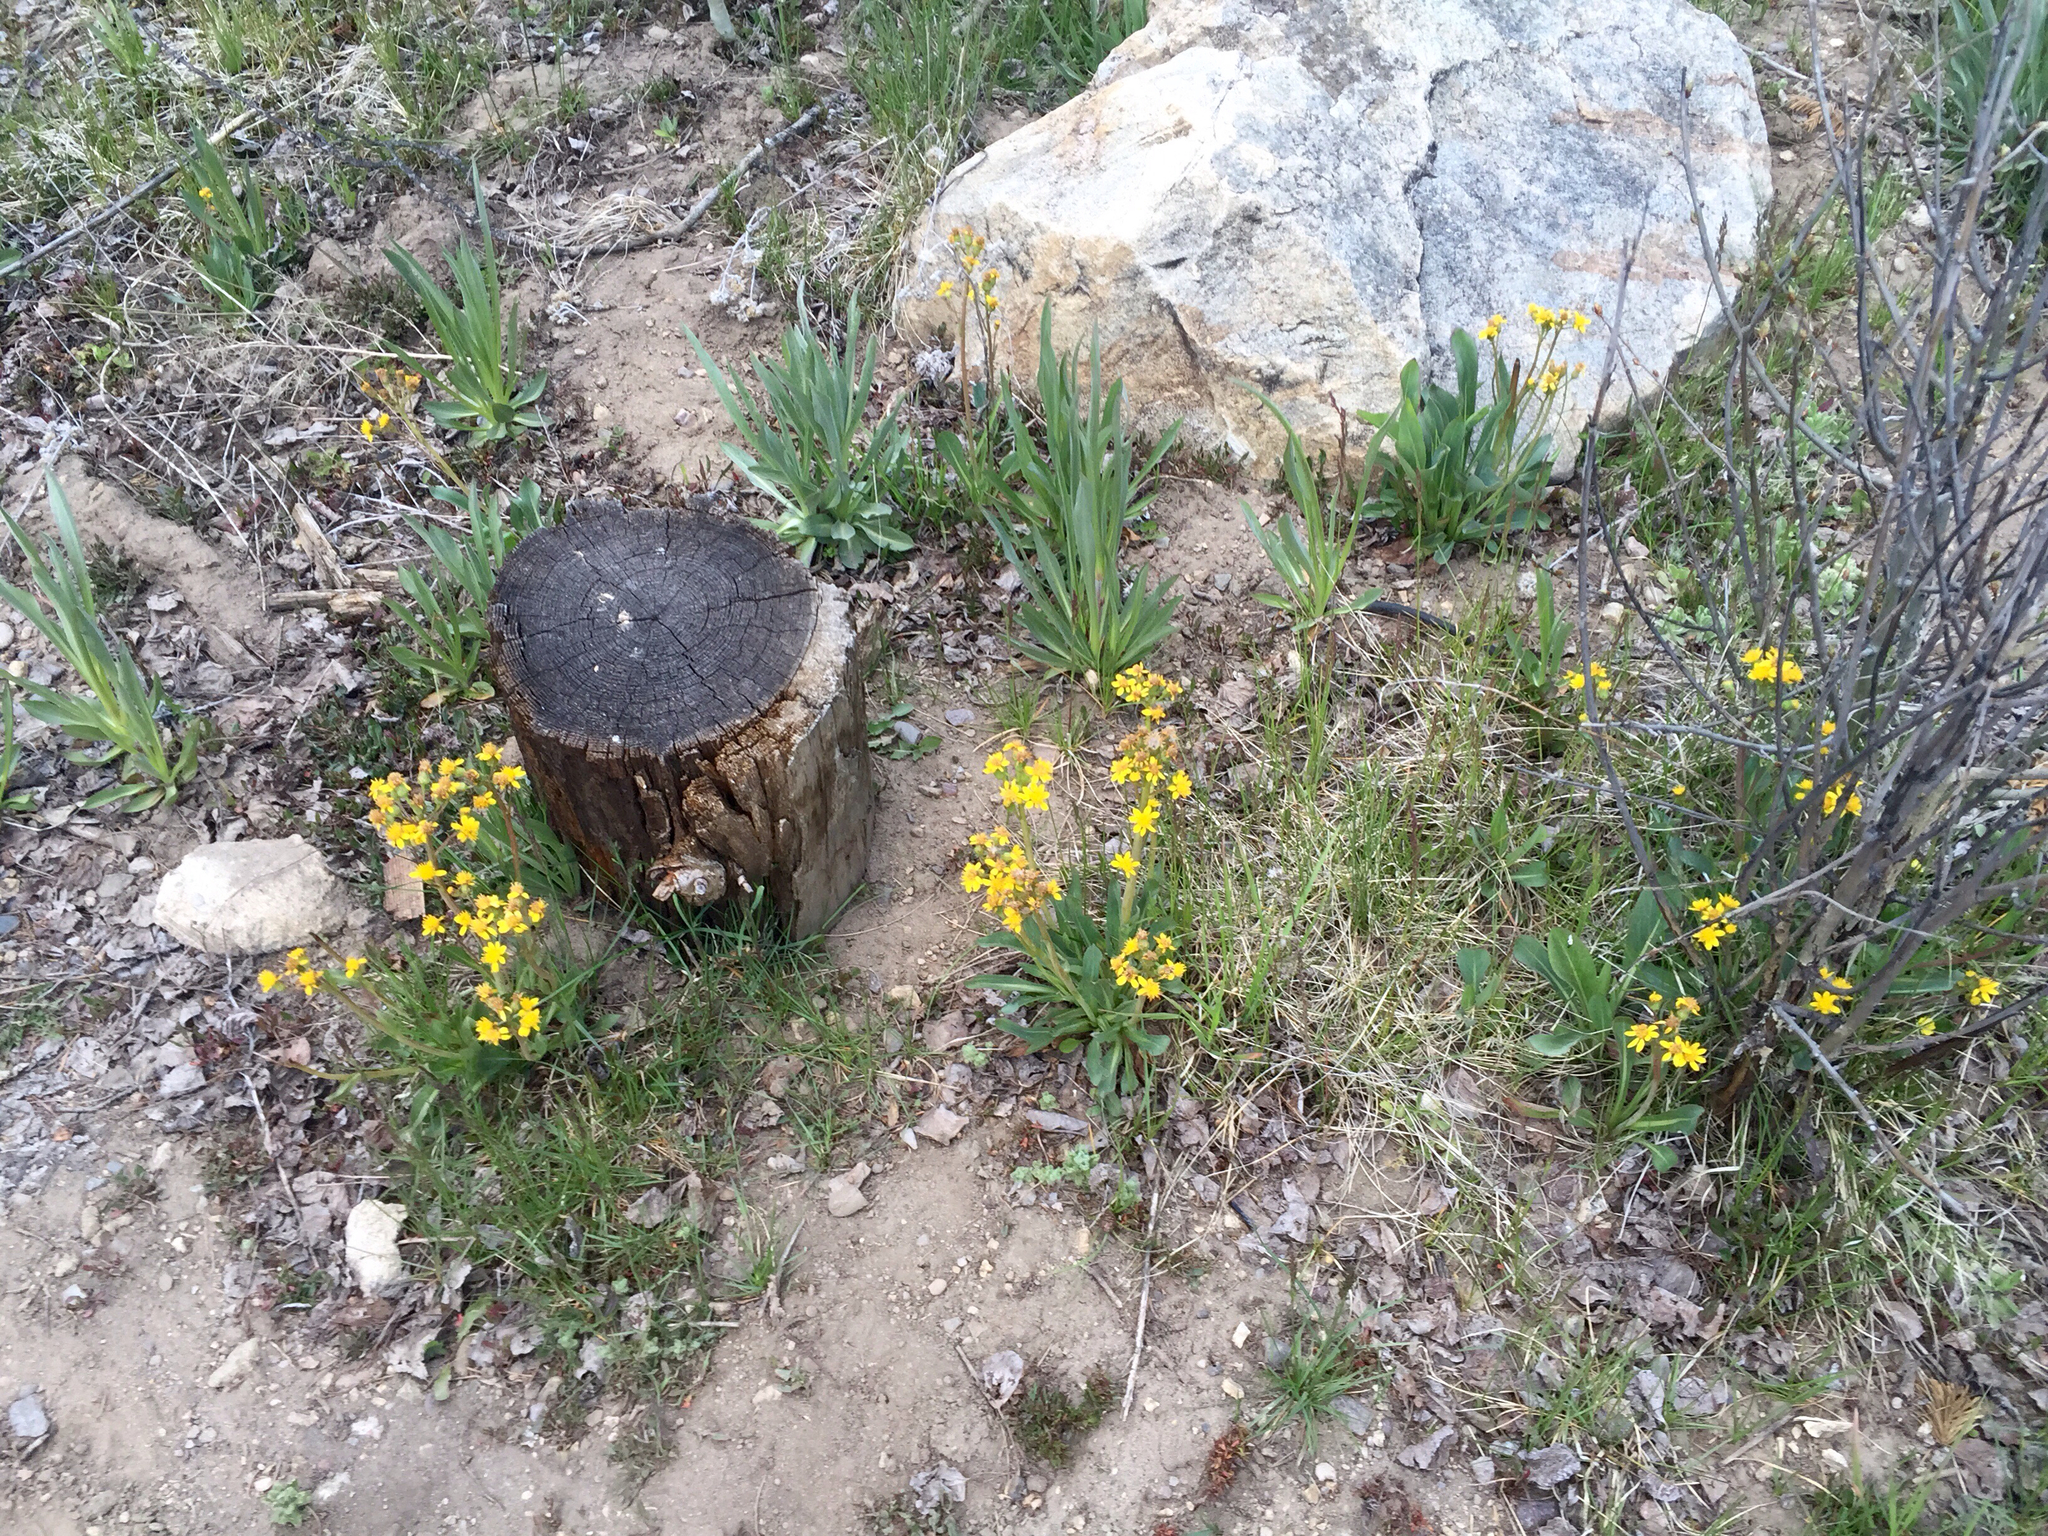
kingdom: Plantae
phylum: Tracheophyta
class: Magnoliopsida
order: Asterales
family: Asteraceae
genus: Senecio
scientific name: Senecio wootonii
